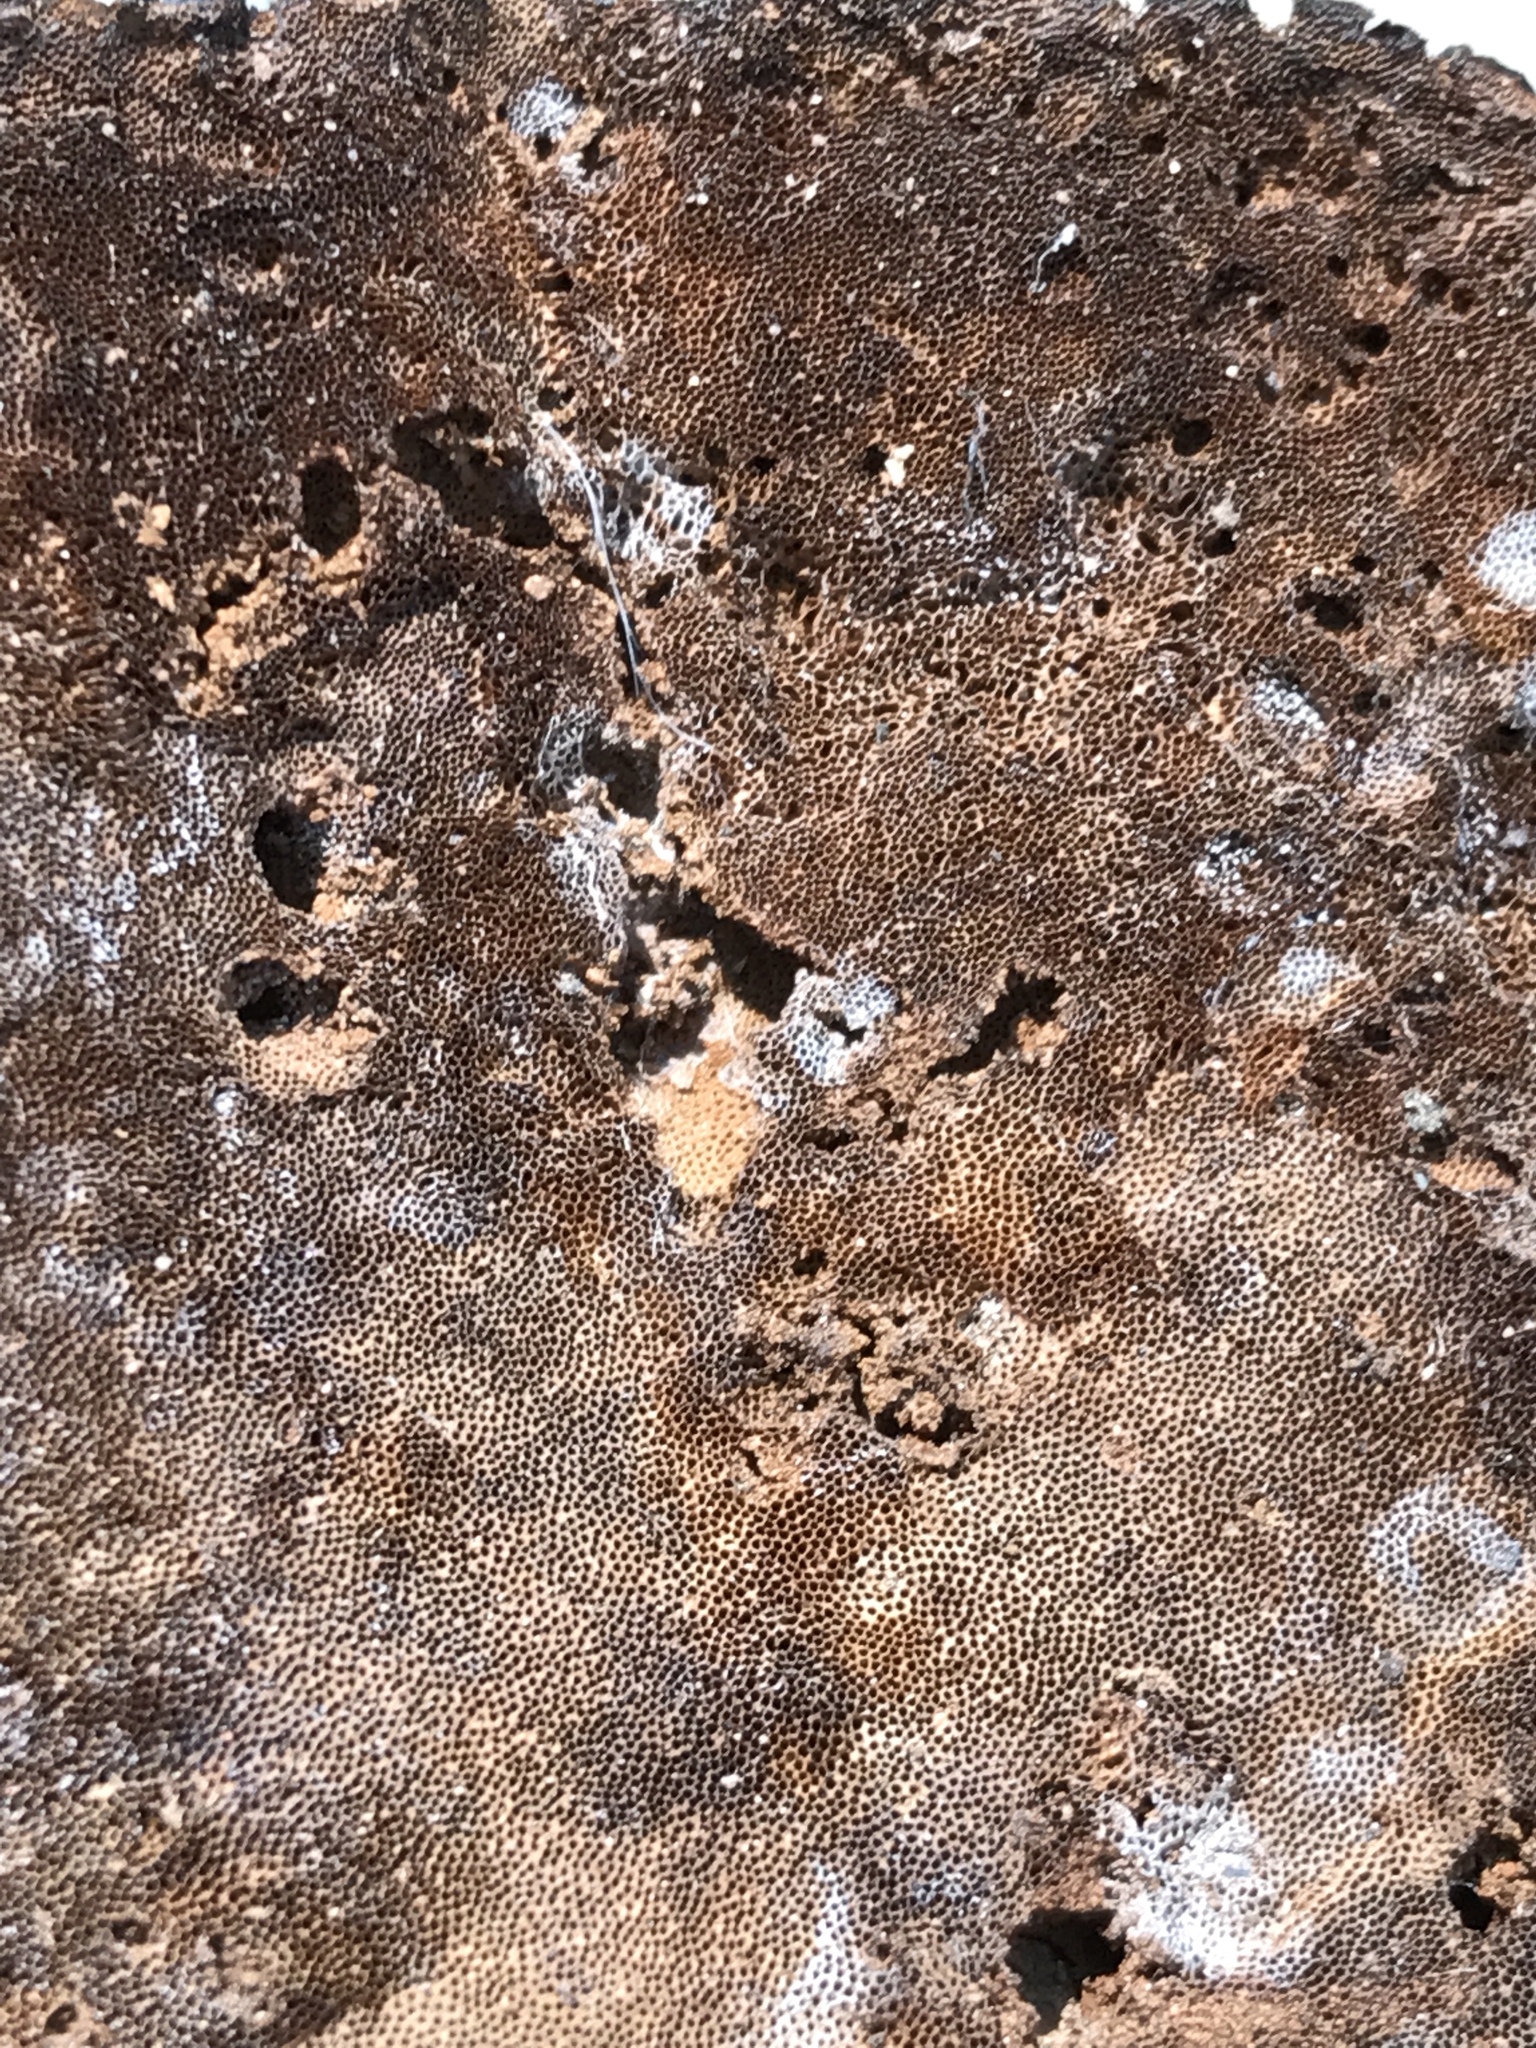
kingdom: Fungi
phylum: Basidiomycota
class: Agaricomycetes
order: Polyporales
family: Cerrenaceae
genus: Cerrena
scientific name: Cerrena hydnoides
